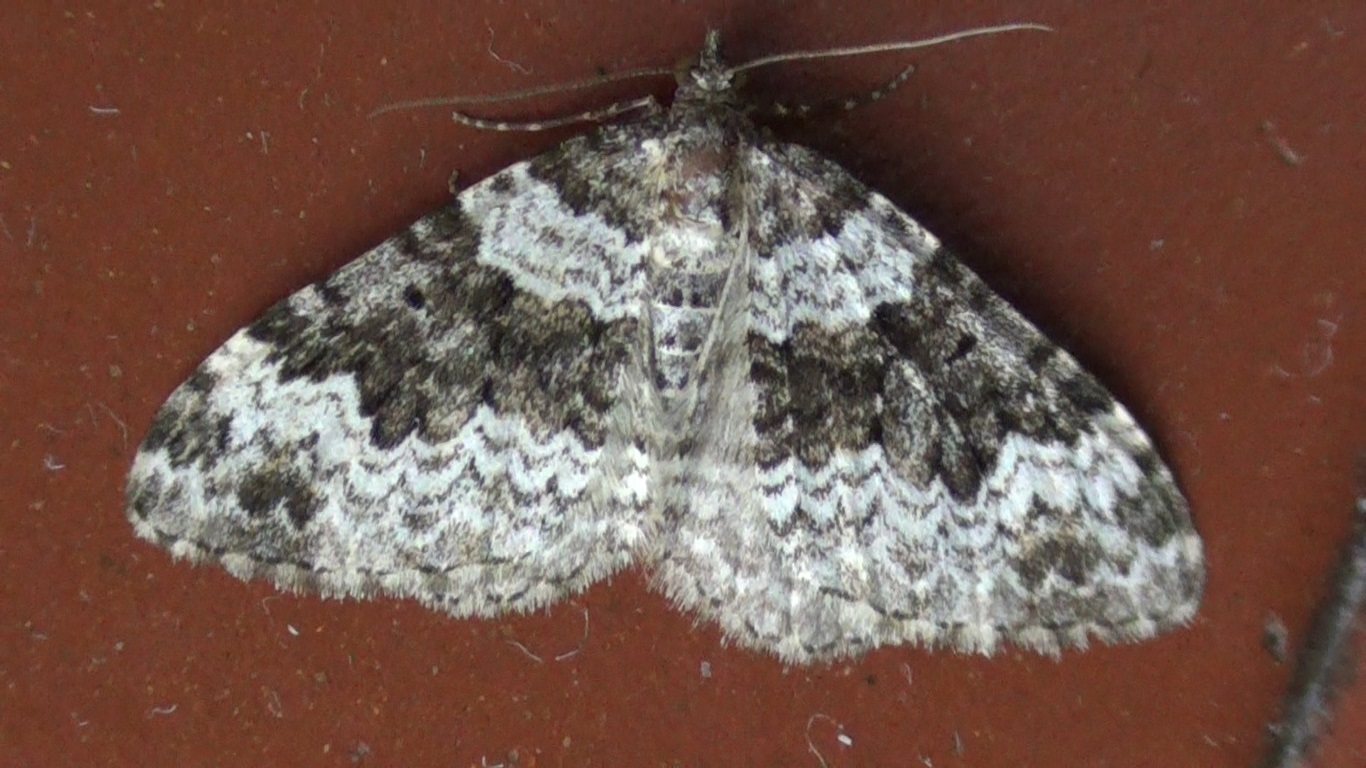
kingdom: Animalia
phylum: Arthropoda
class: Insecta
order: Lepidoptera
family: Geometridae
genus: Xanthorhoe
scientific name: Xanthorhoe disjunctaria
